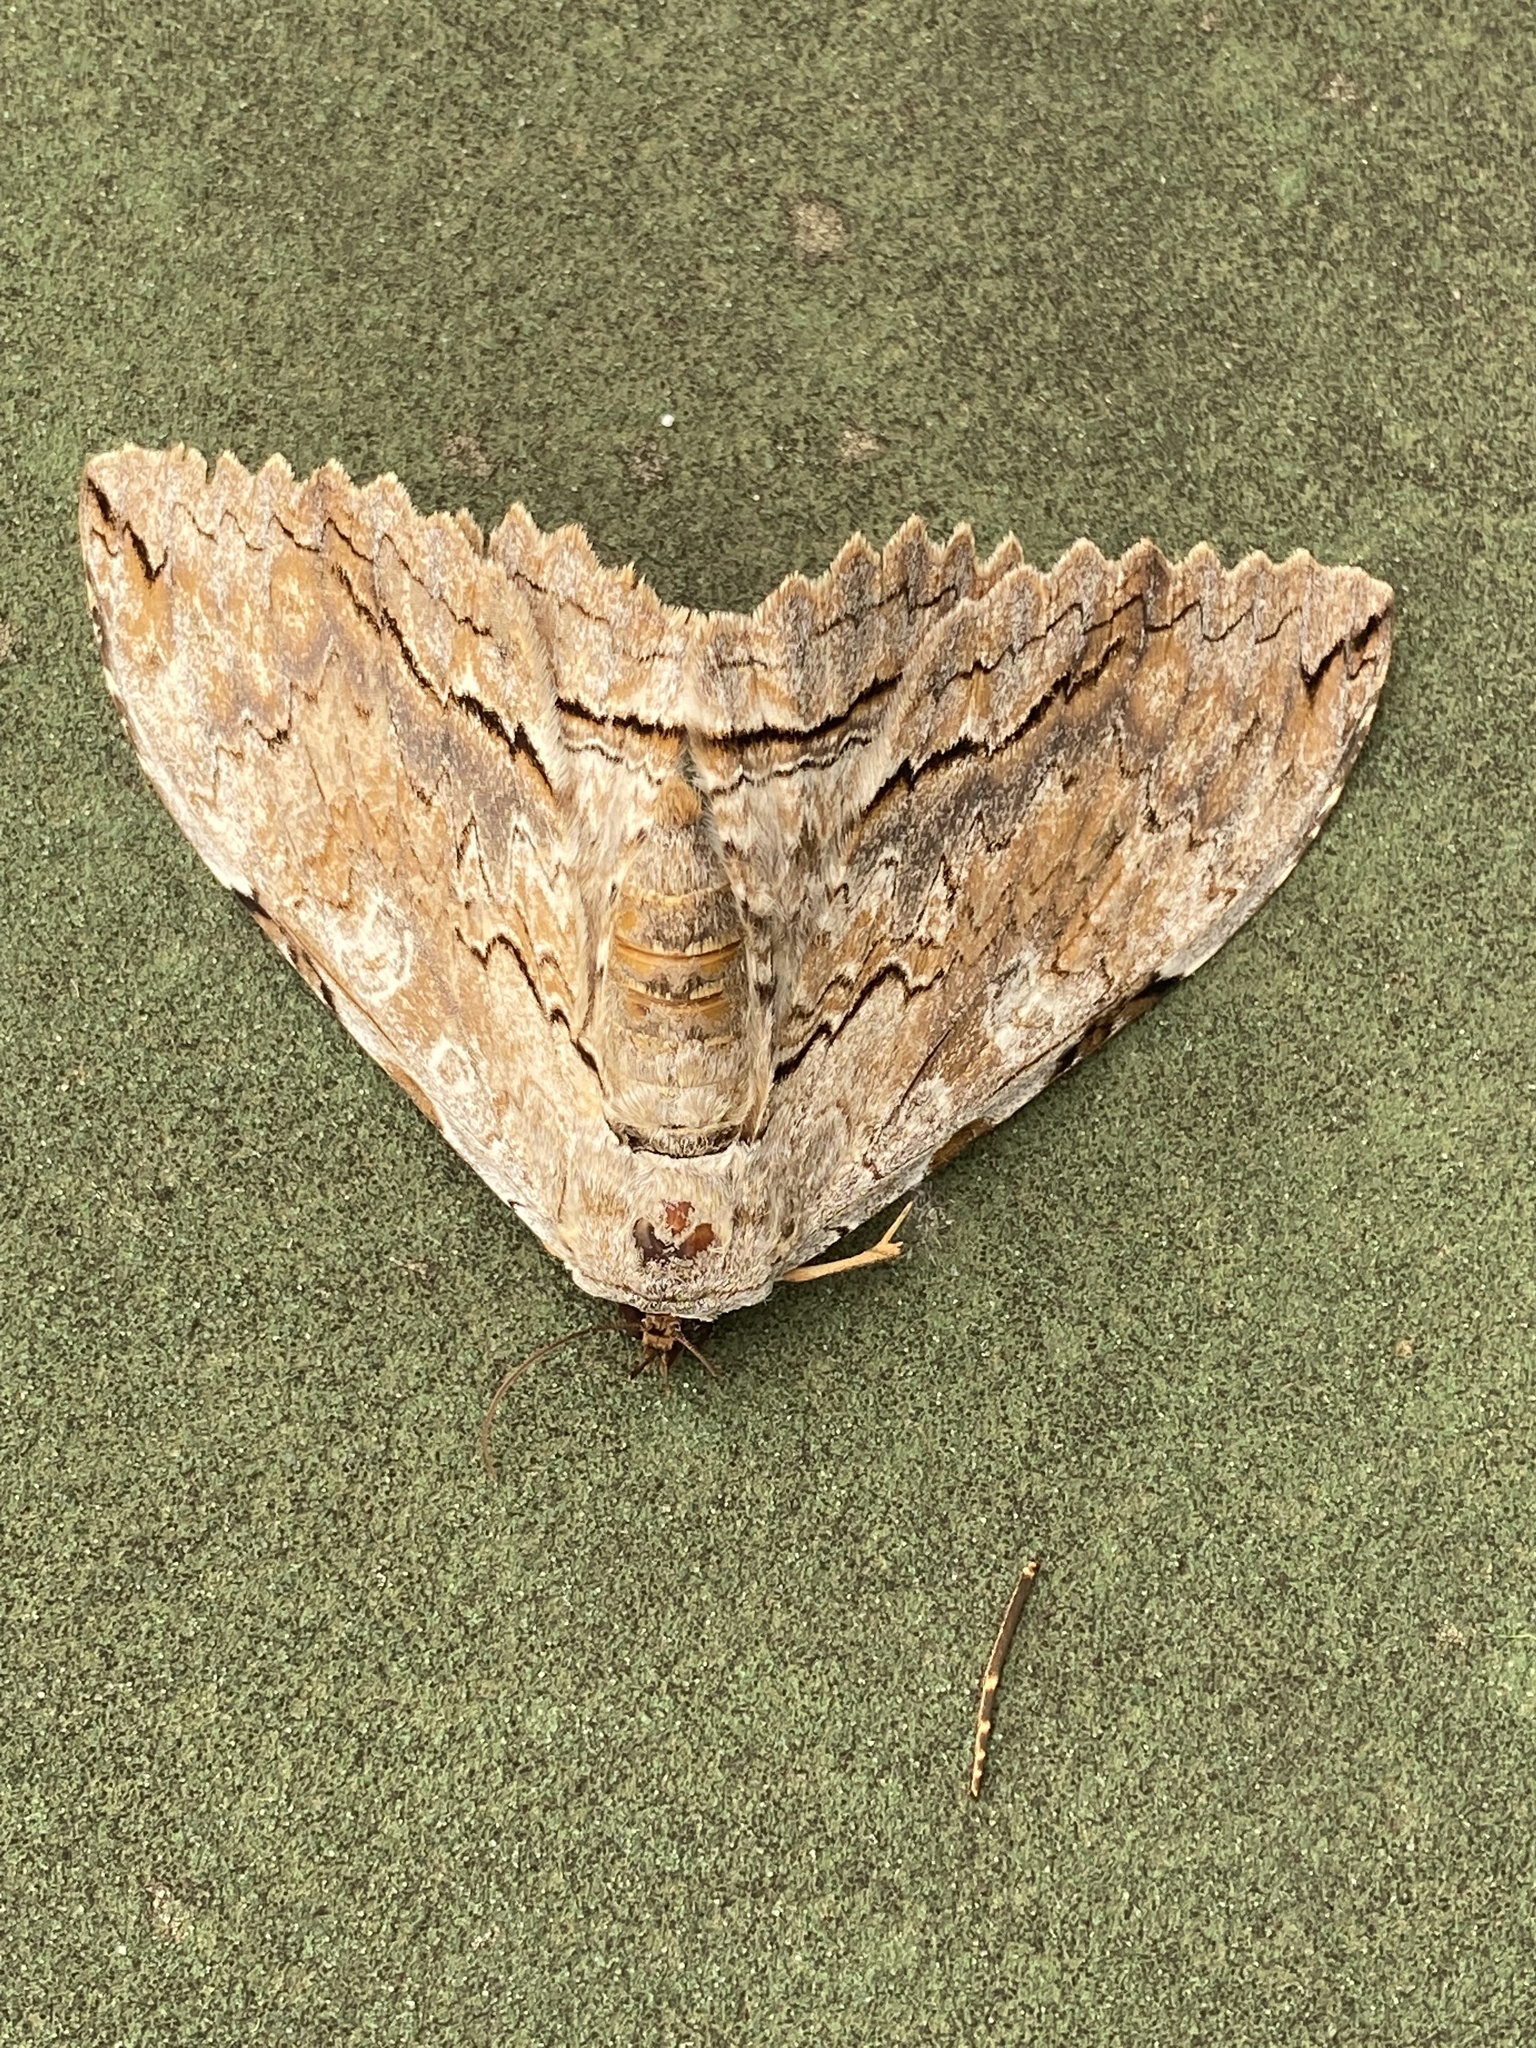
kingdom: Animalia
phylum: Arthropoda
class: Insecta
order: Lepidoptera
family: Erebidae
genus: Thysania
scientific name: Thysania zenobia
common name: Owl moth
